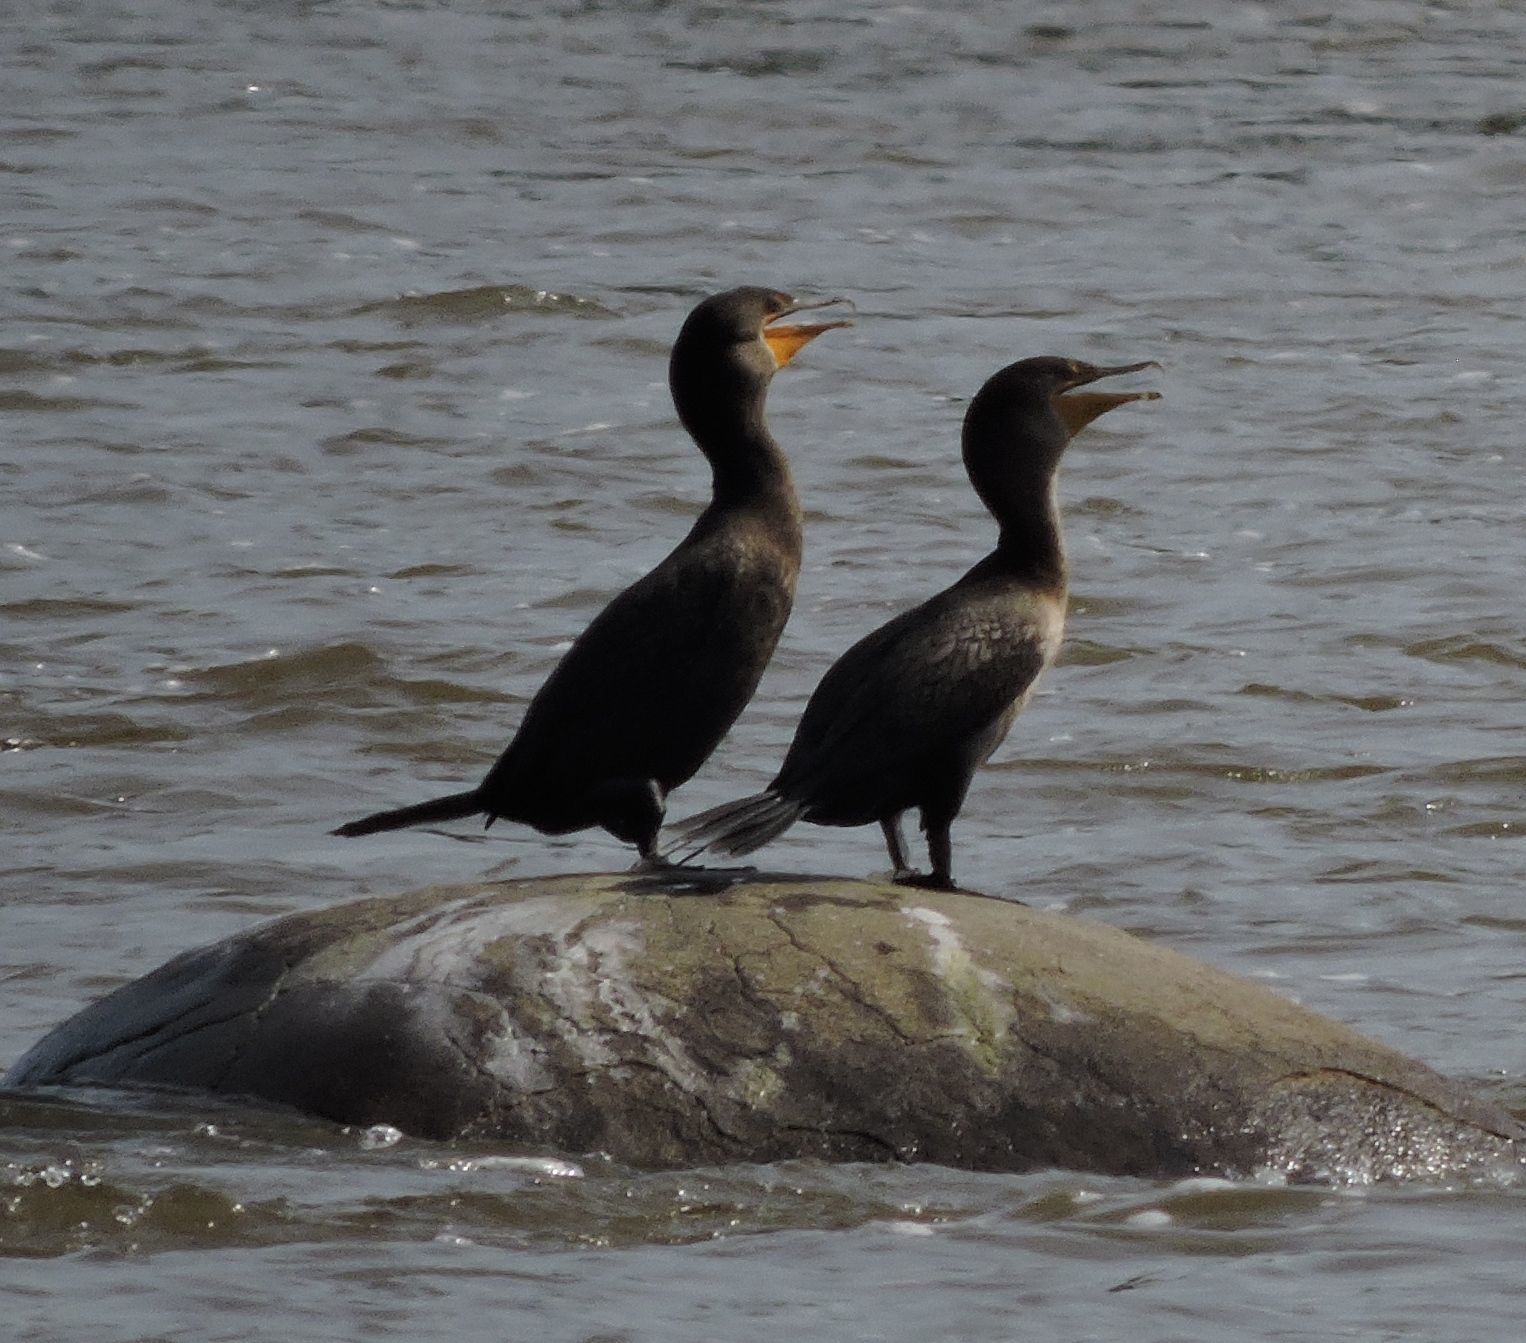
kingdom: Animalia
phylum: Chordata
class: Aves
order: Suliformes
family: Phalacrocoracidae
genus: Phalacrocorax
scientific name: Phalacrocorax auritus
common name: Double-crested cormorant
